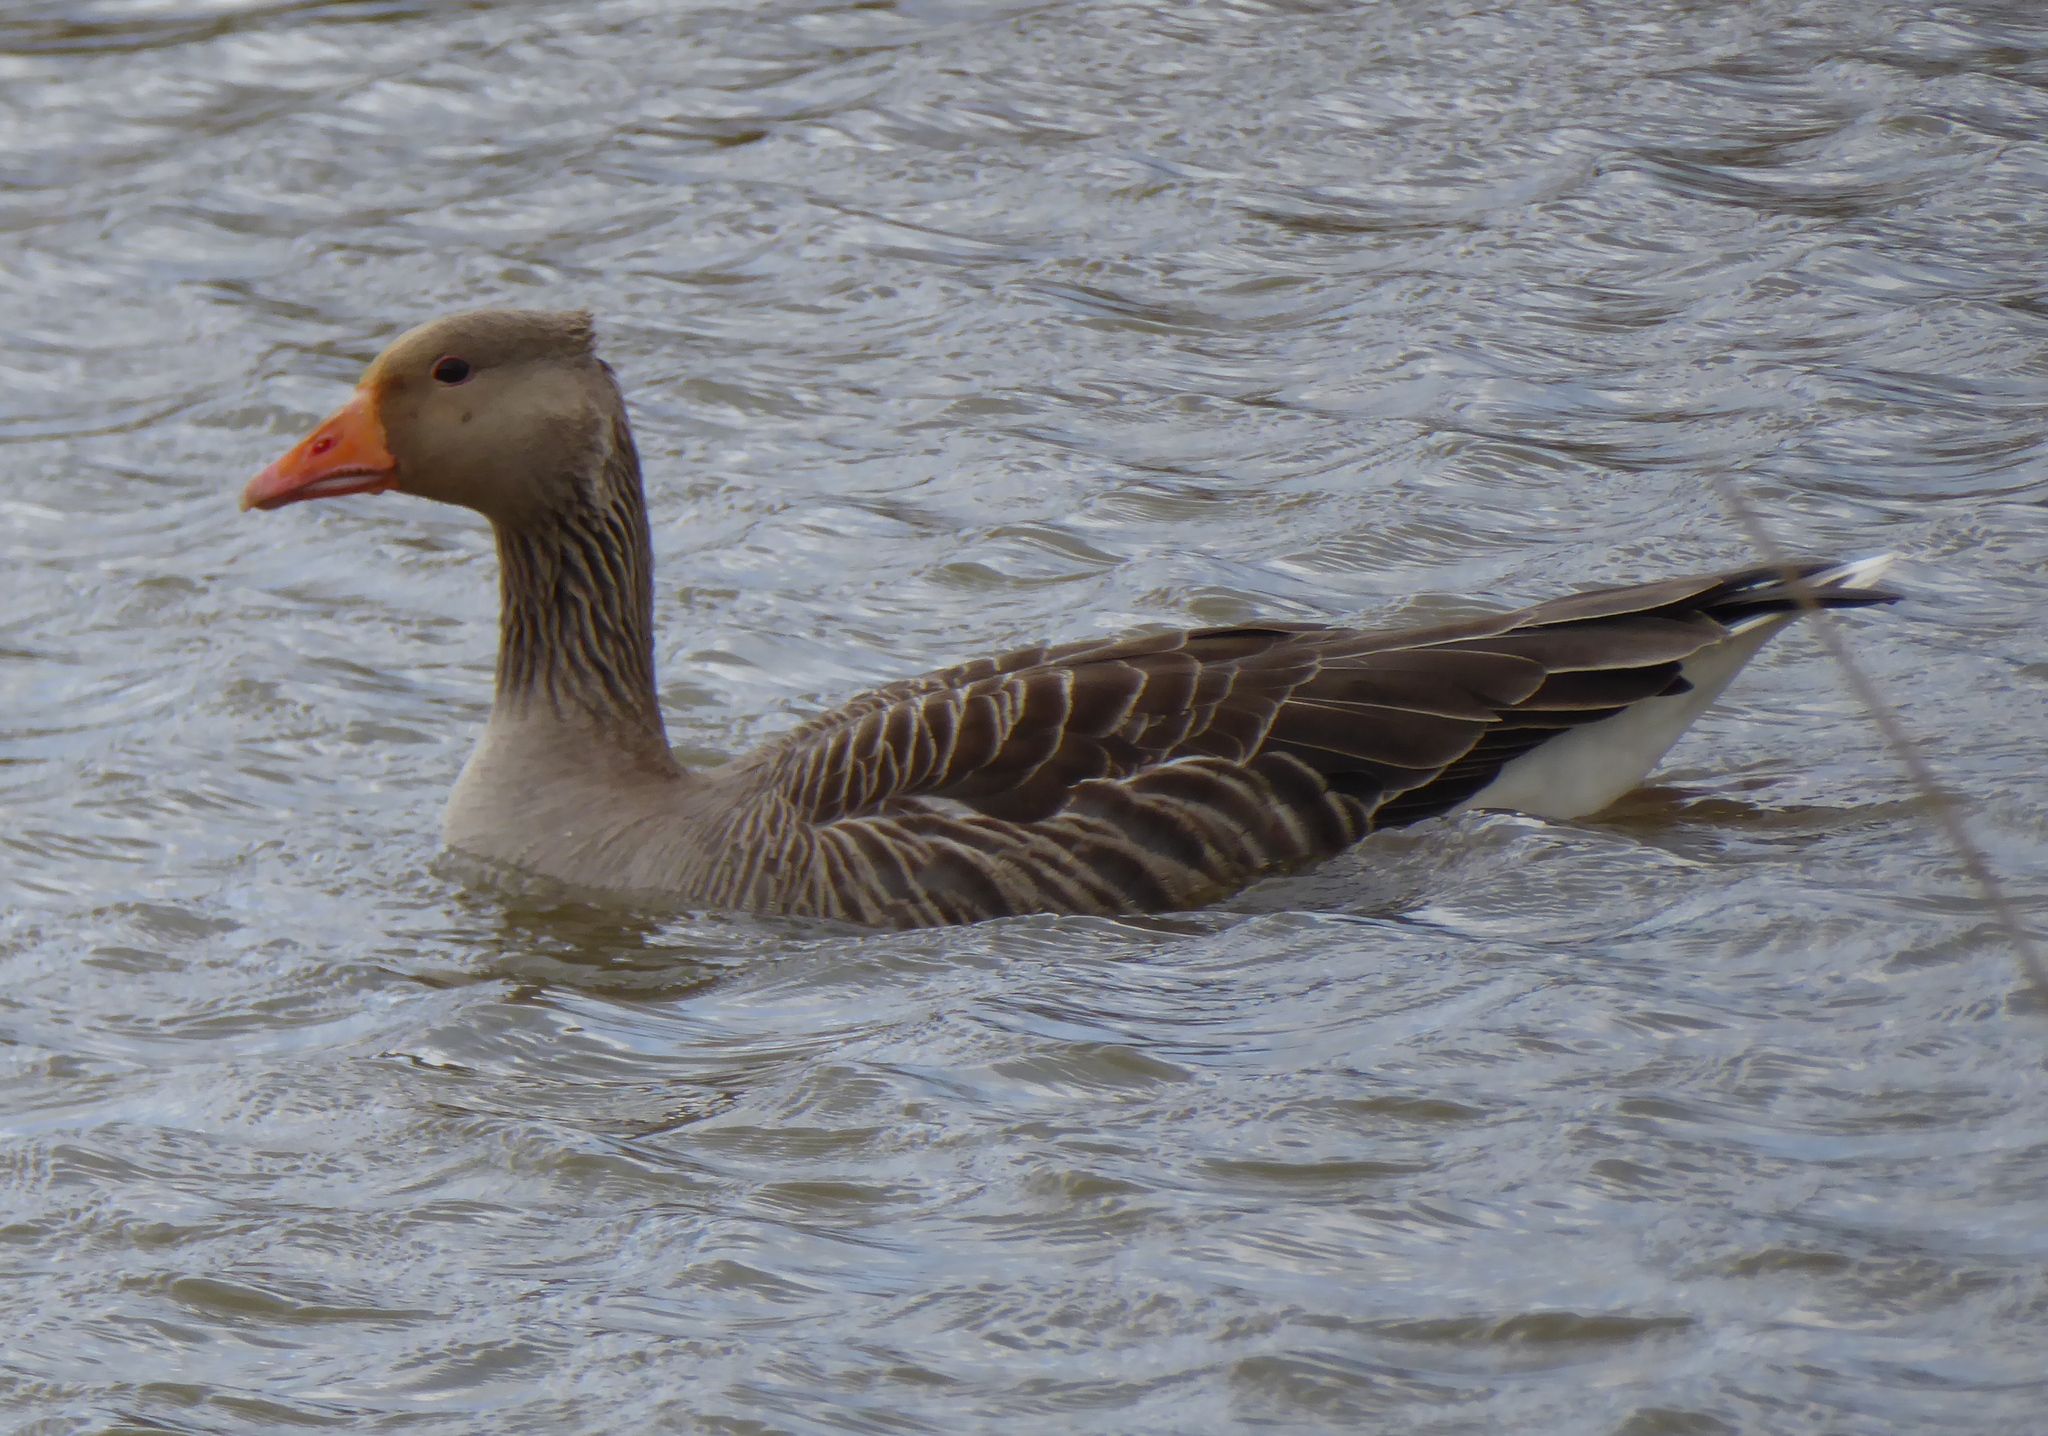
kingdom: Animalia
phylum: Chordata
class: Aves
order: Anseriformes
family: Anatidae
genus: Anser
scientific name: Anser anser
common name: Greylag goose
